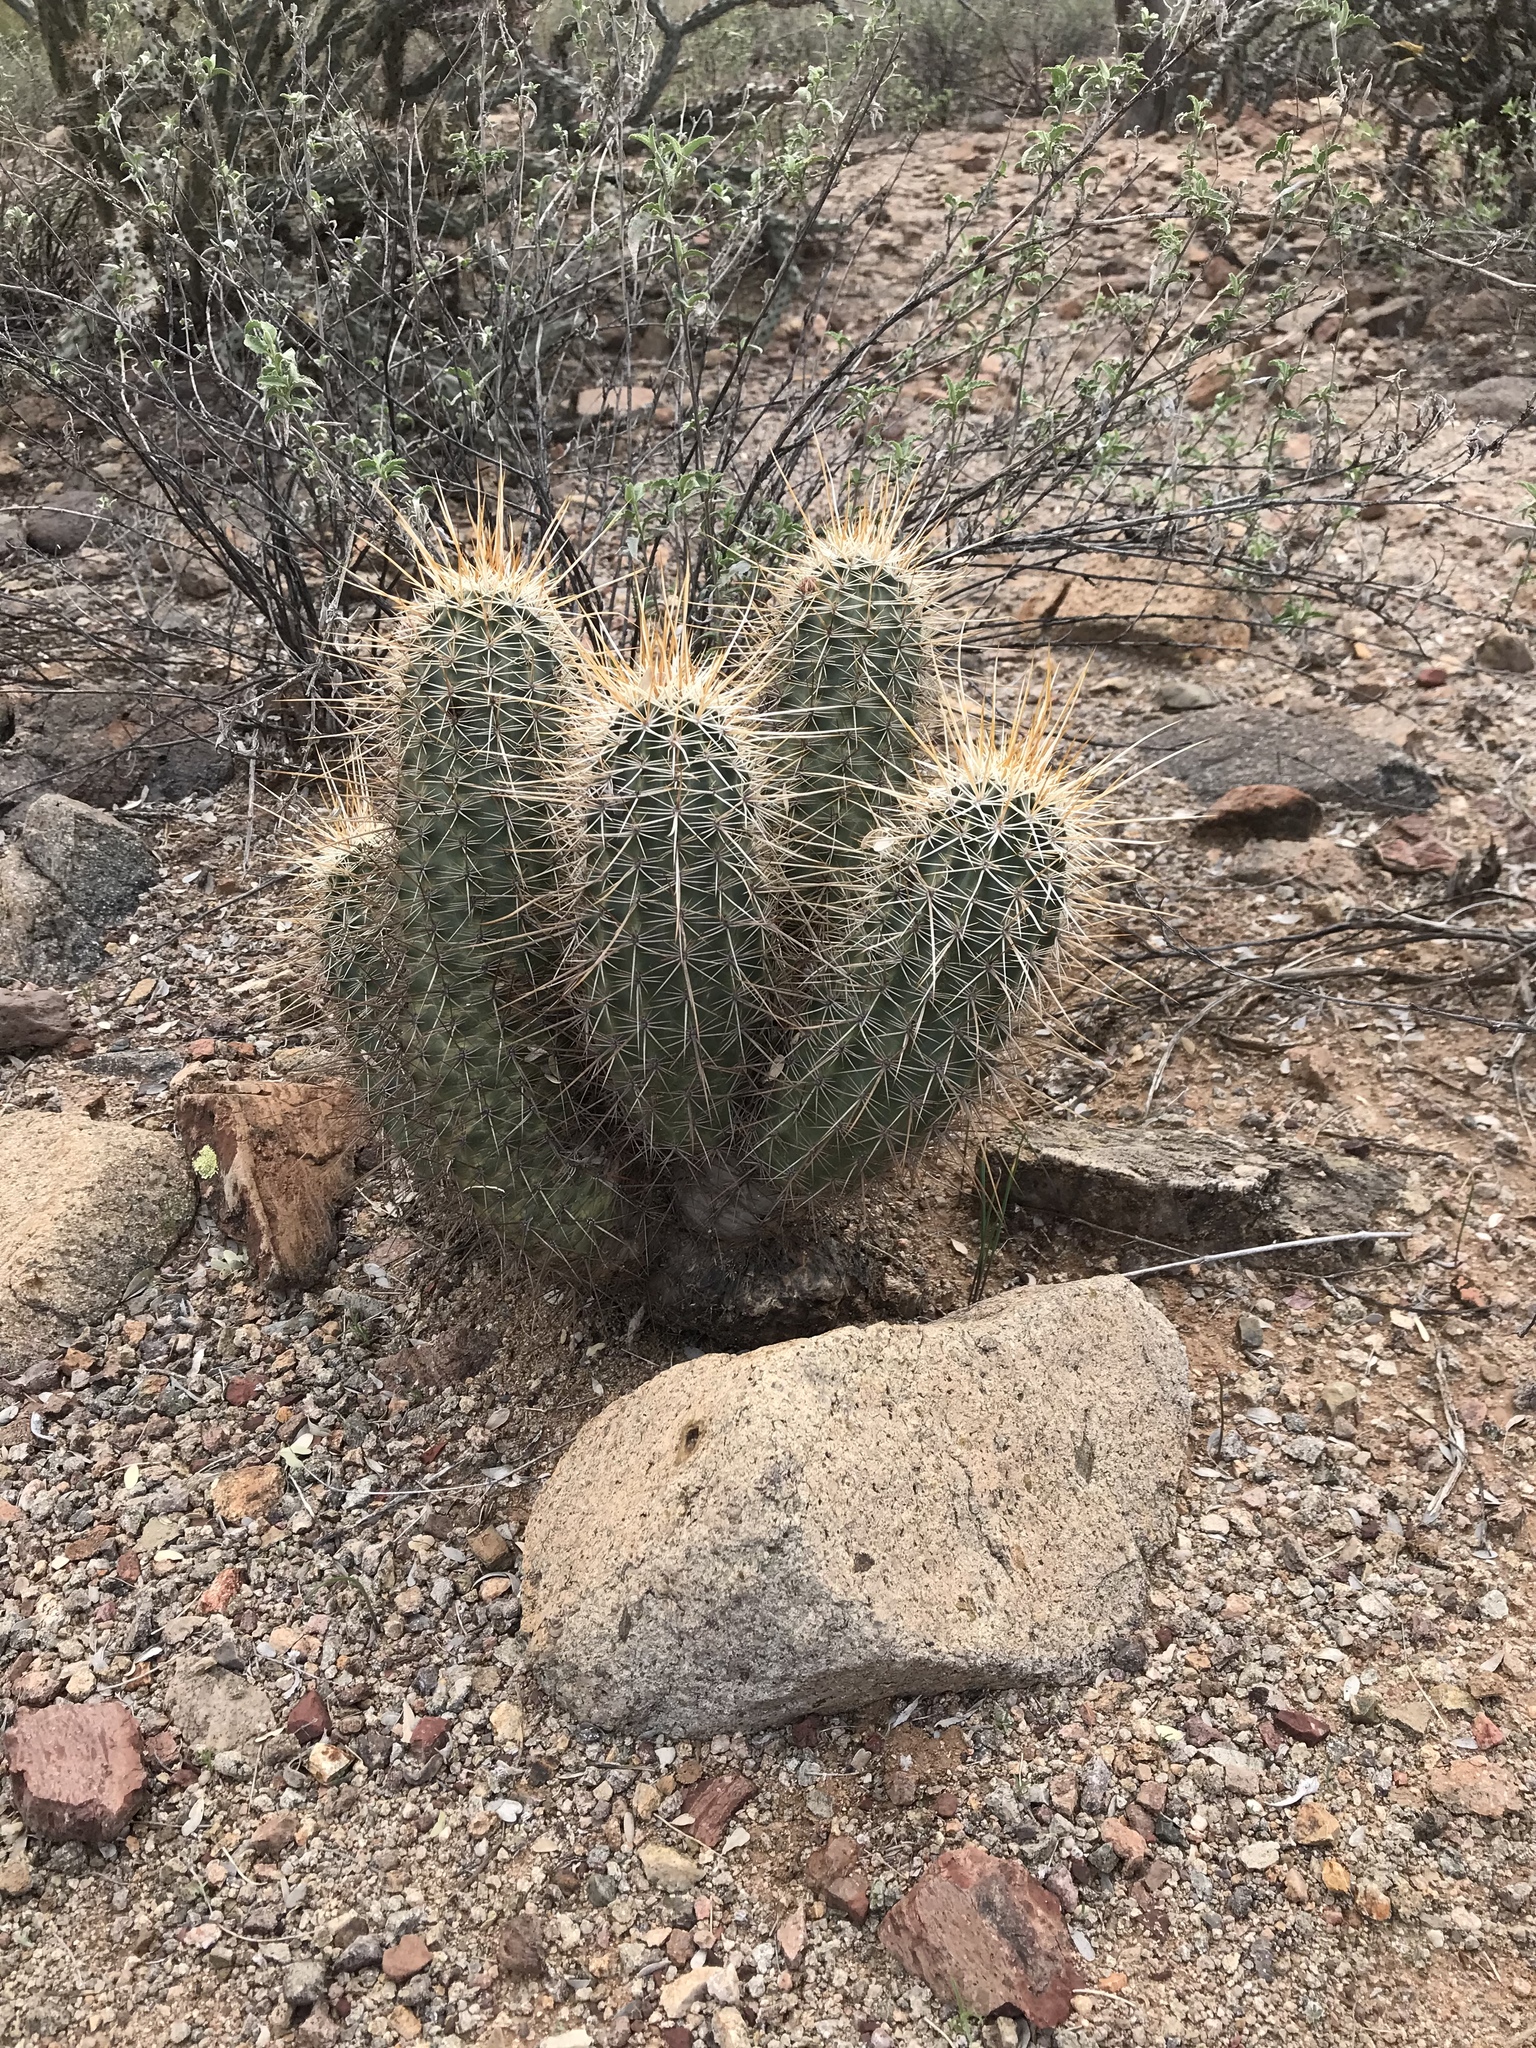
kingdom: Plantae
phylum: Tracheophyta
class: Magnoliopsida
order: Caryophyllales
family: Cactaceae
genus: Echinocereus
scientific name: Echinocereus fasciculatus
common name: Bundle hedgehog
